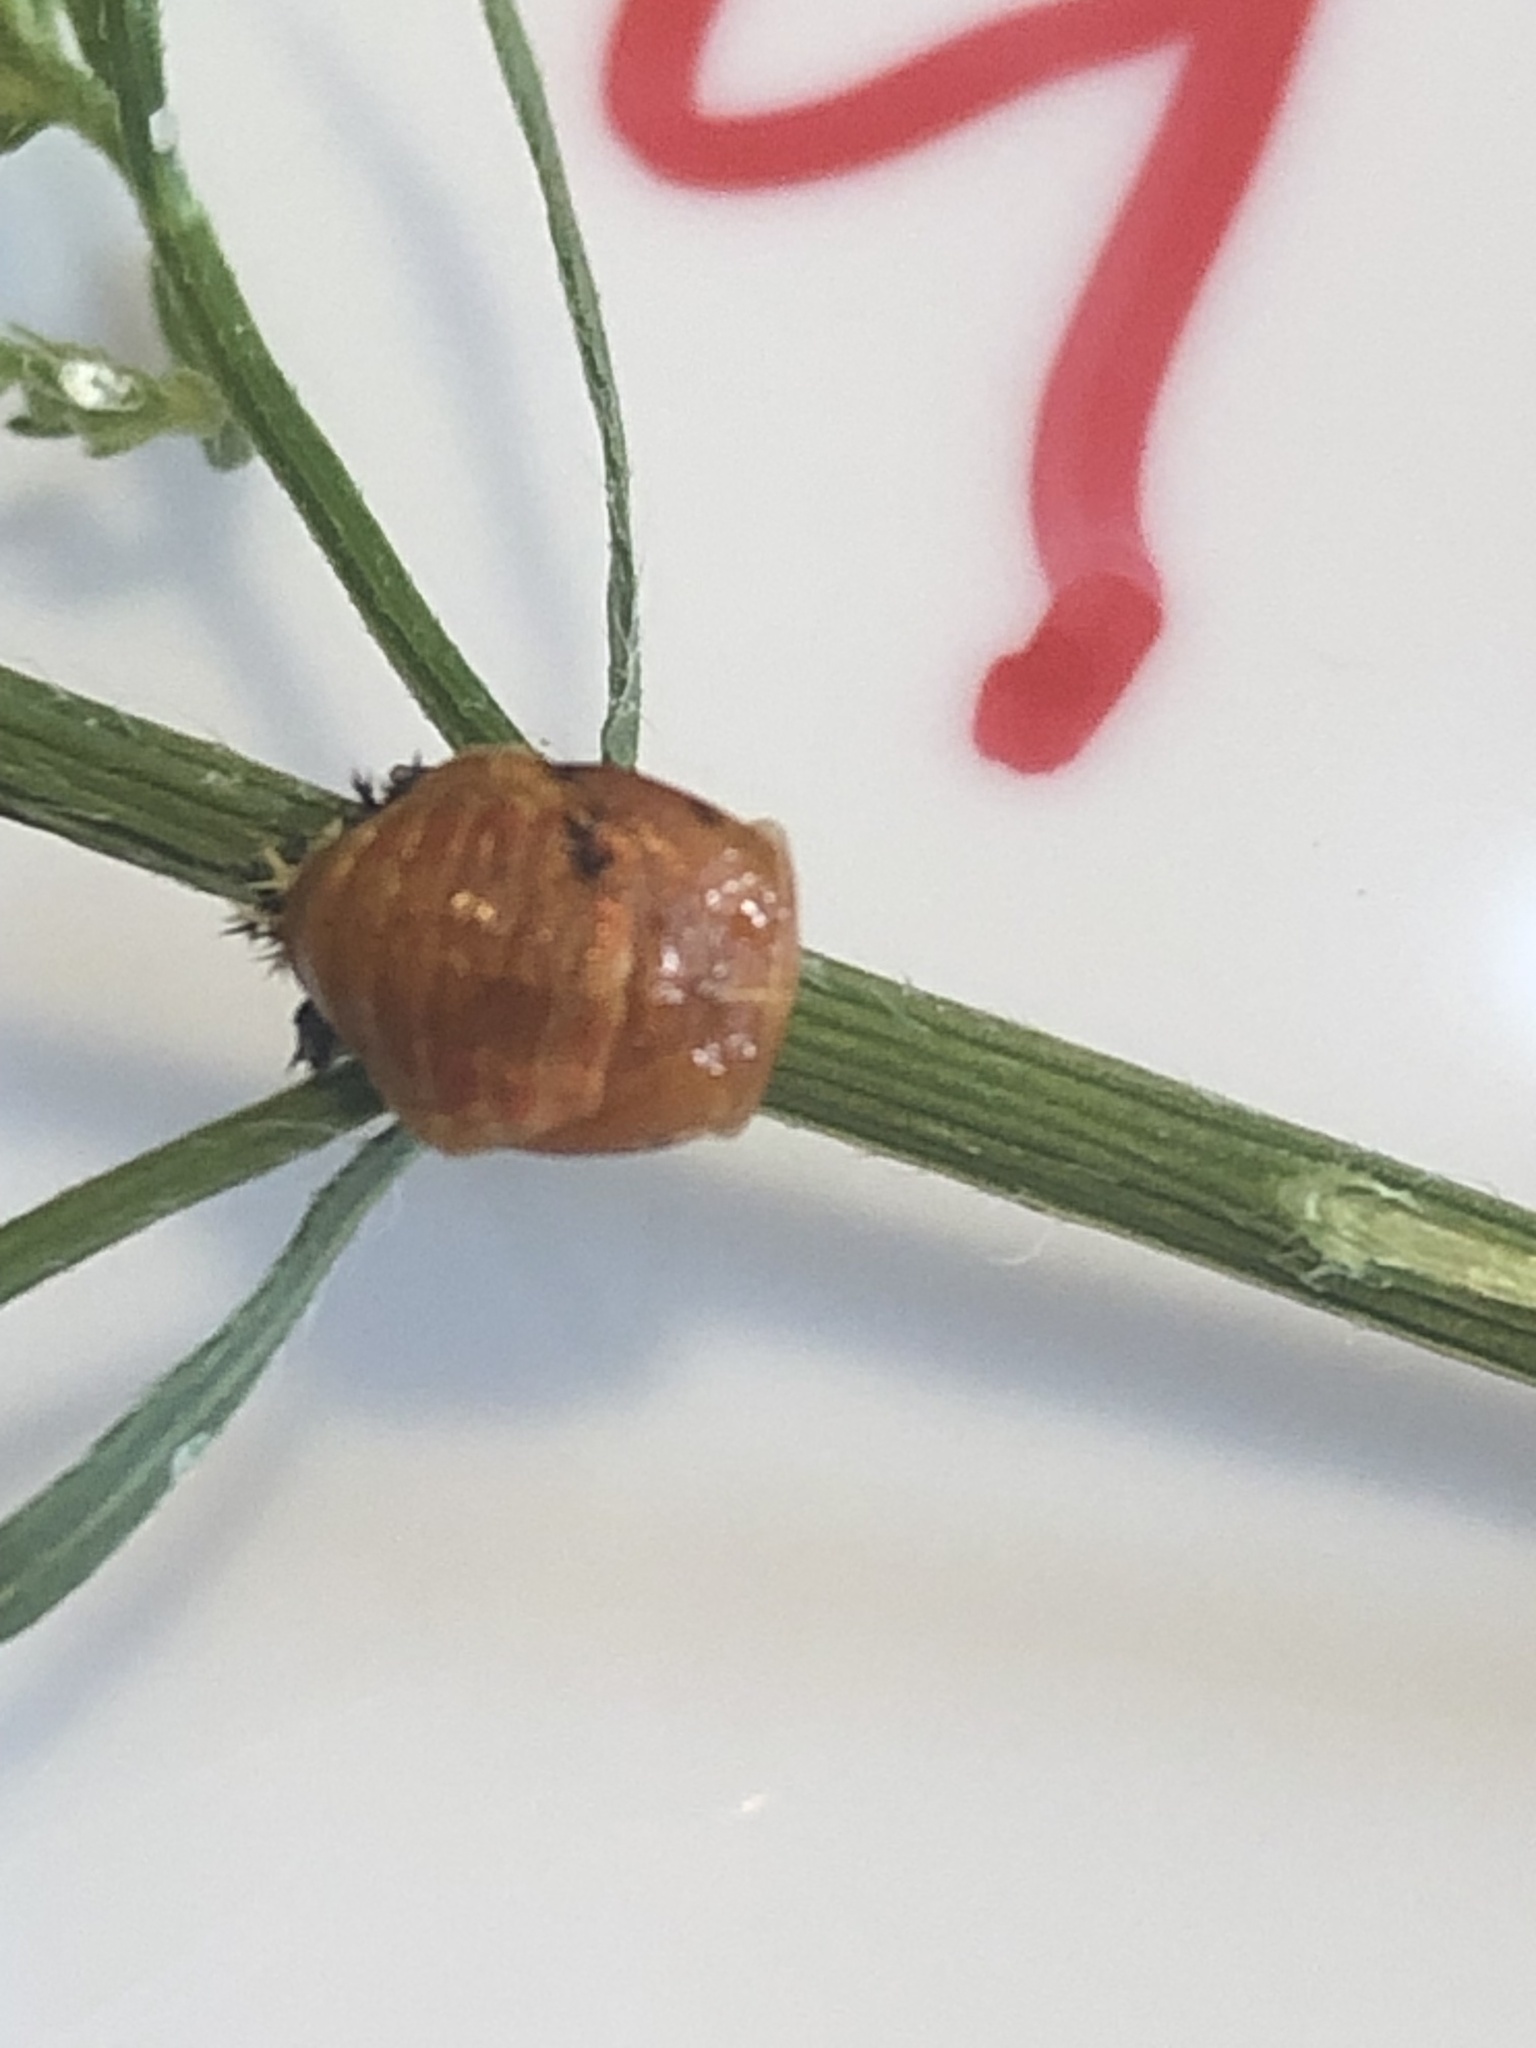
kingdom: Animalia
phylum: Arthropoda
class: Insecta
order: Coleoptera
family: Coccinellidae
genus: Harmonia
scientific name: Harmonia axyridis
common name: Harlequin ladybird
